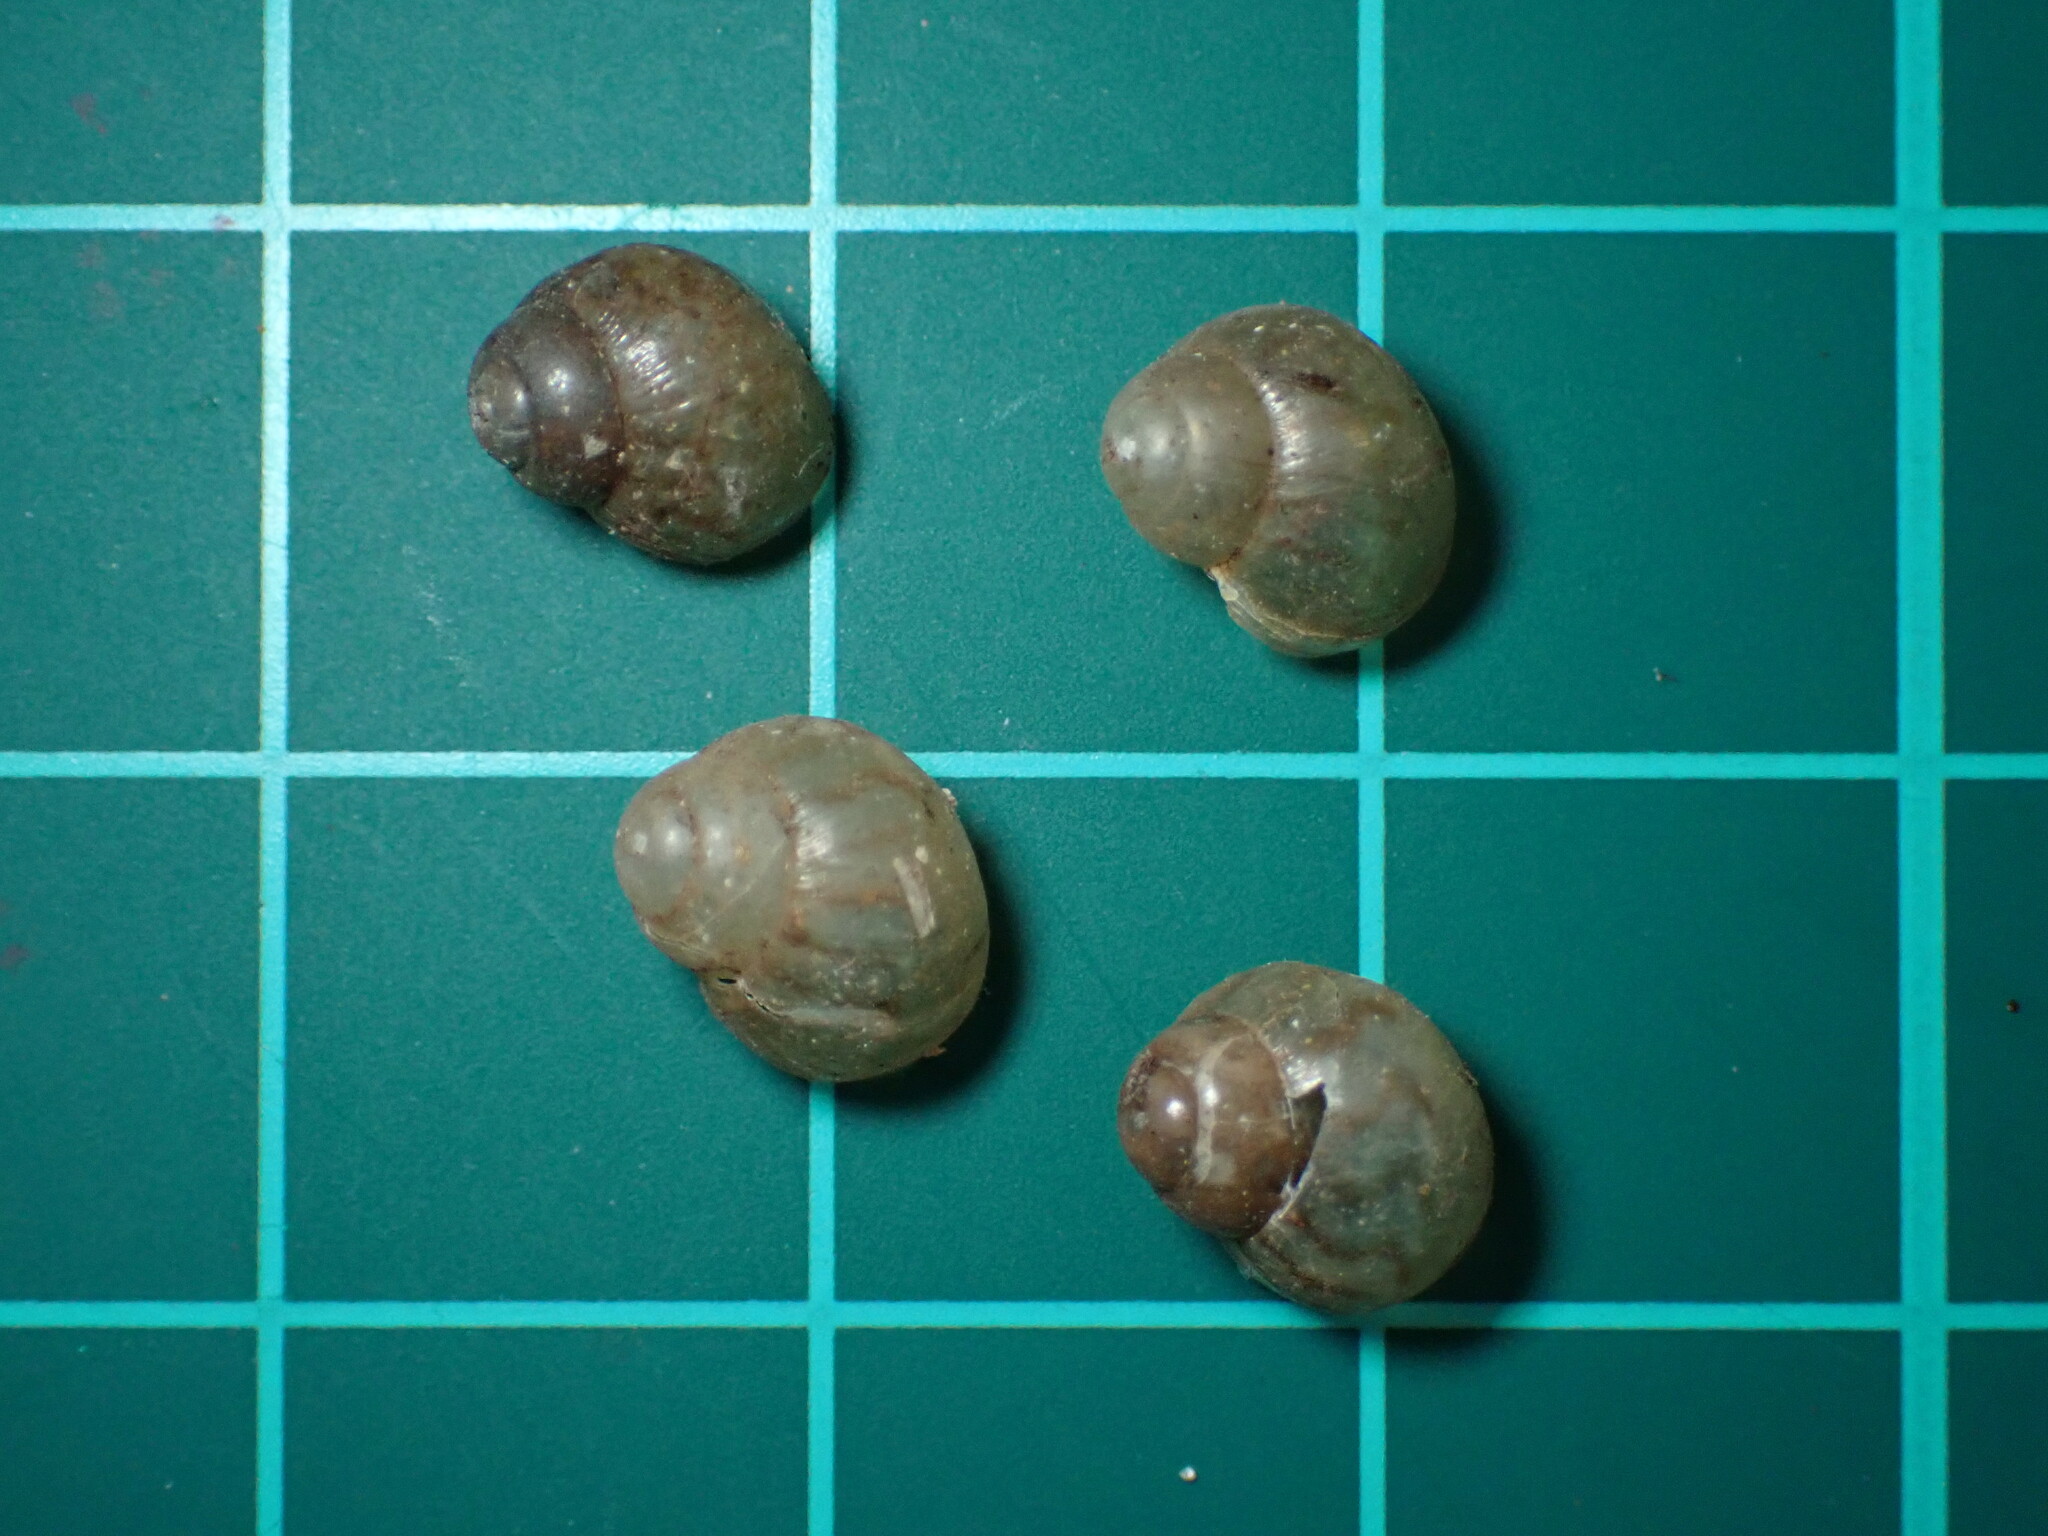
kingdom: Animalia
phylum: Mollusca
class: Gastropoda
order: Stylommatophora
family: Achatinidae
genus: Lissachatina
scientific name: Lissachatina fulica
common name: Giant african snail
